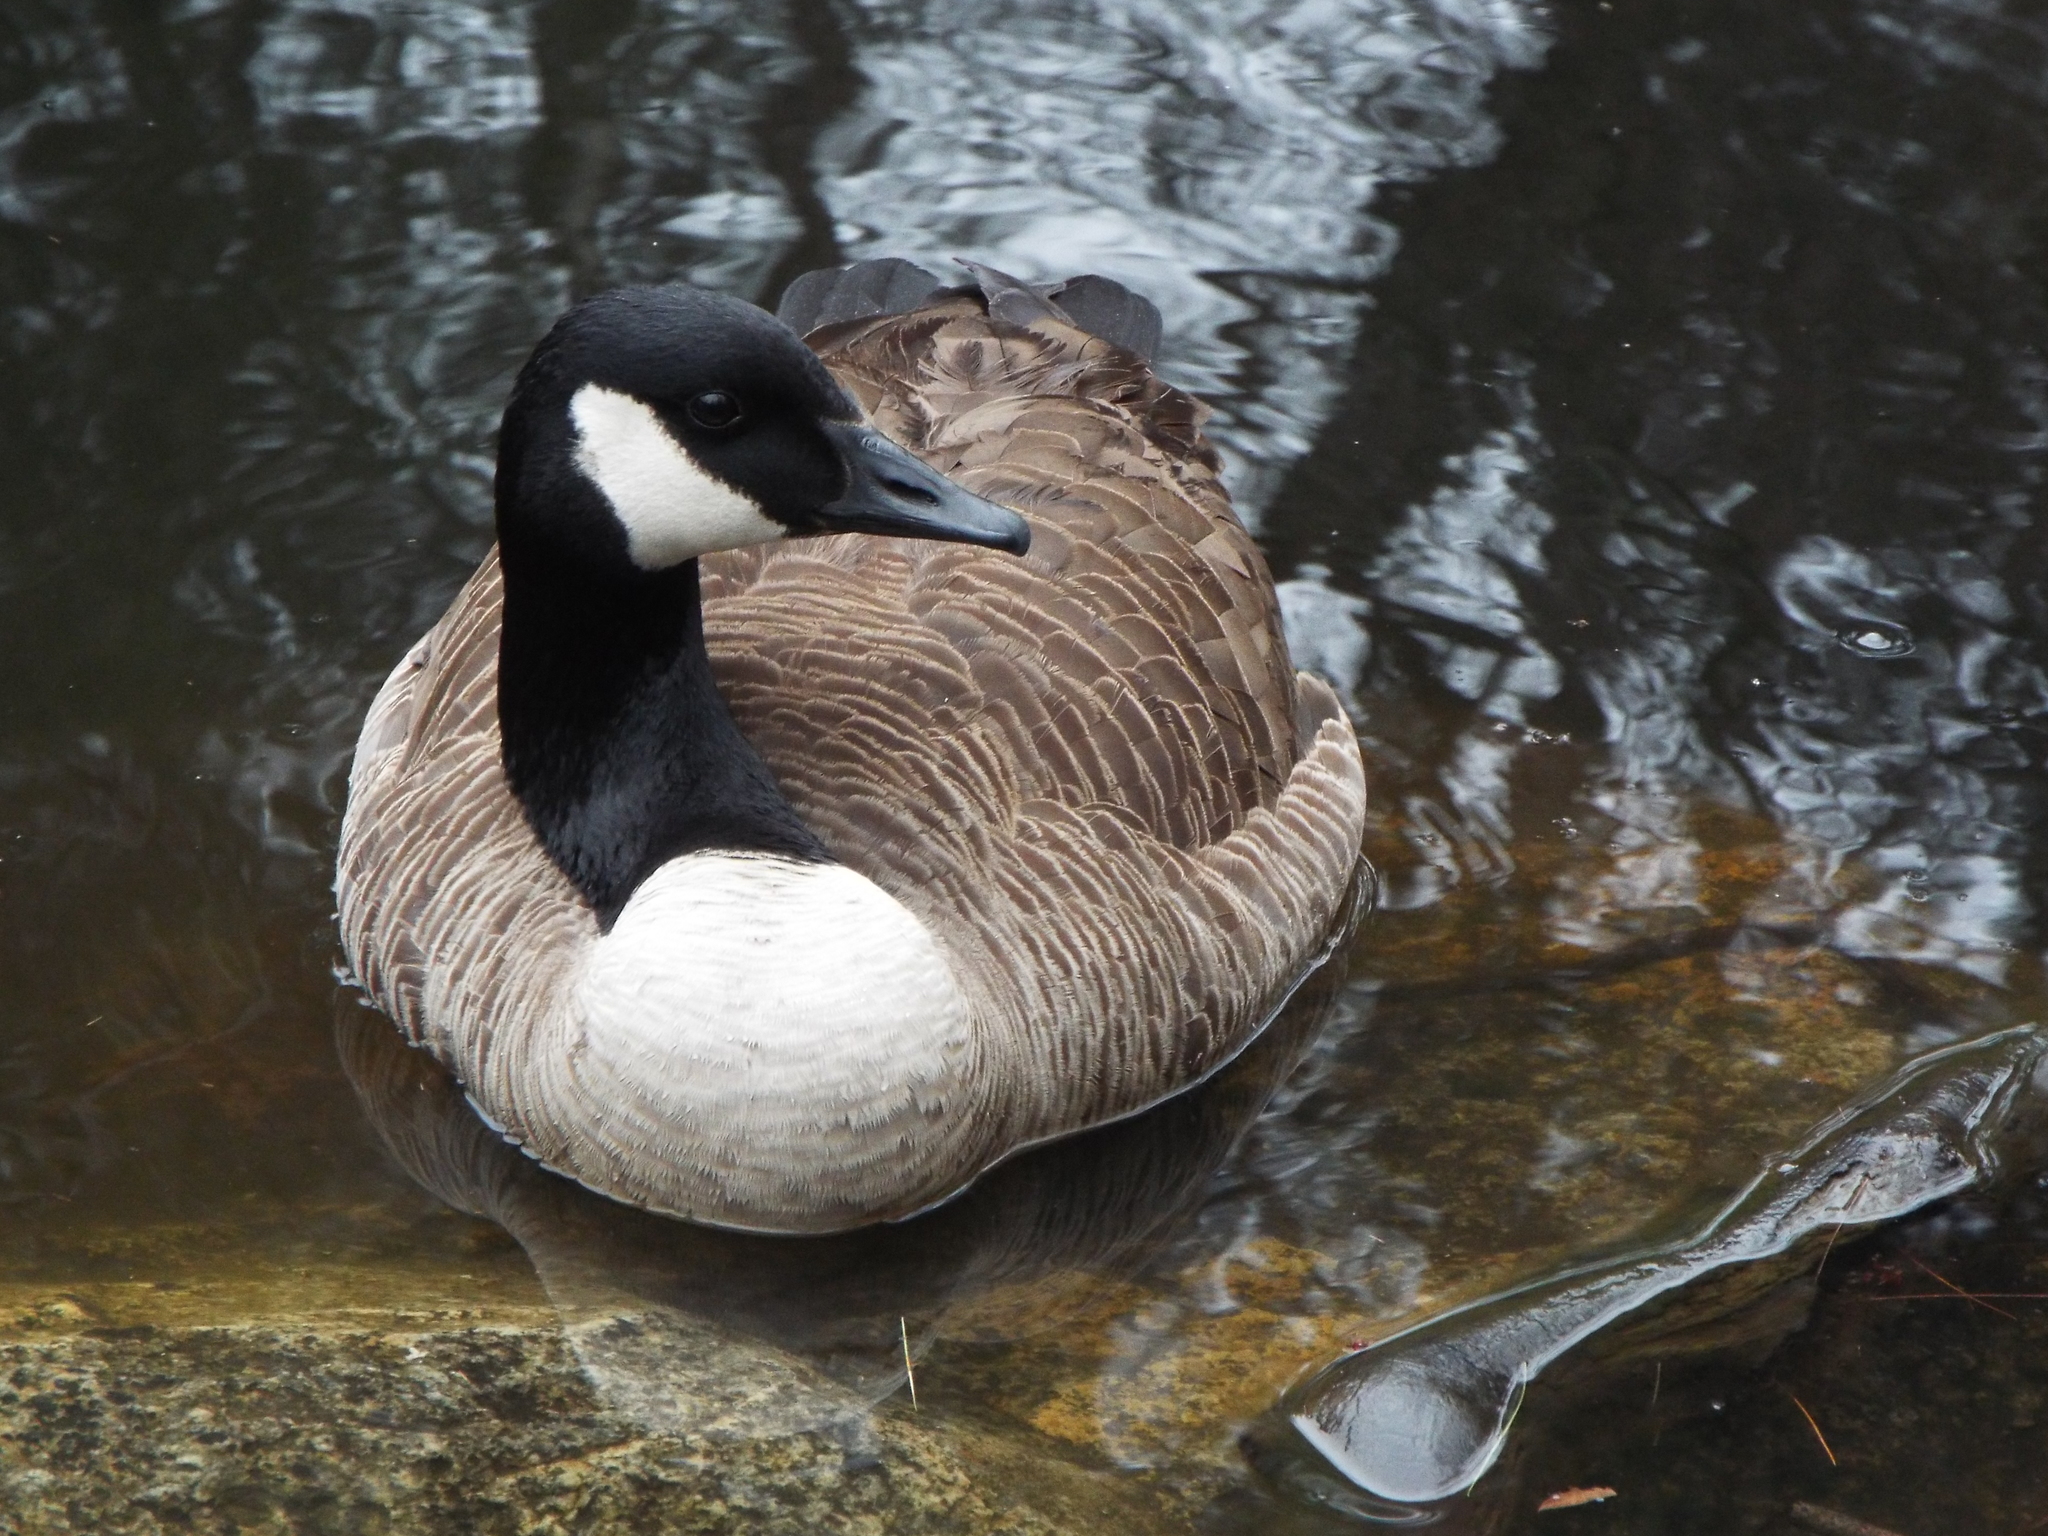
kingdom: Animalia
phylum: Chordata
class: Aves
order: Anseriformes
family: Anatidae
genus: Branta
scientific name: Branta canadensis
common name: Canada goose
